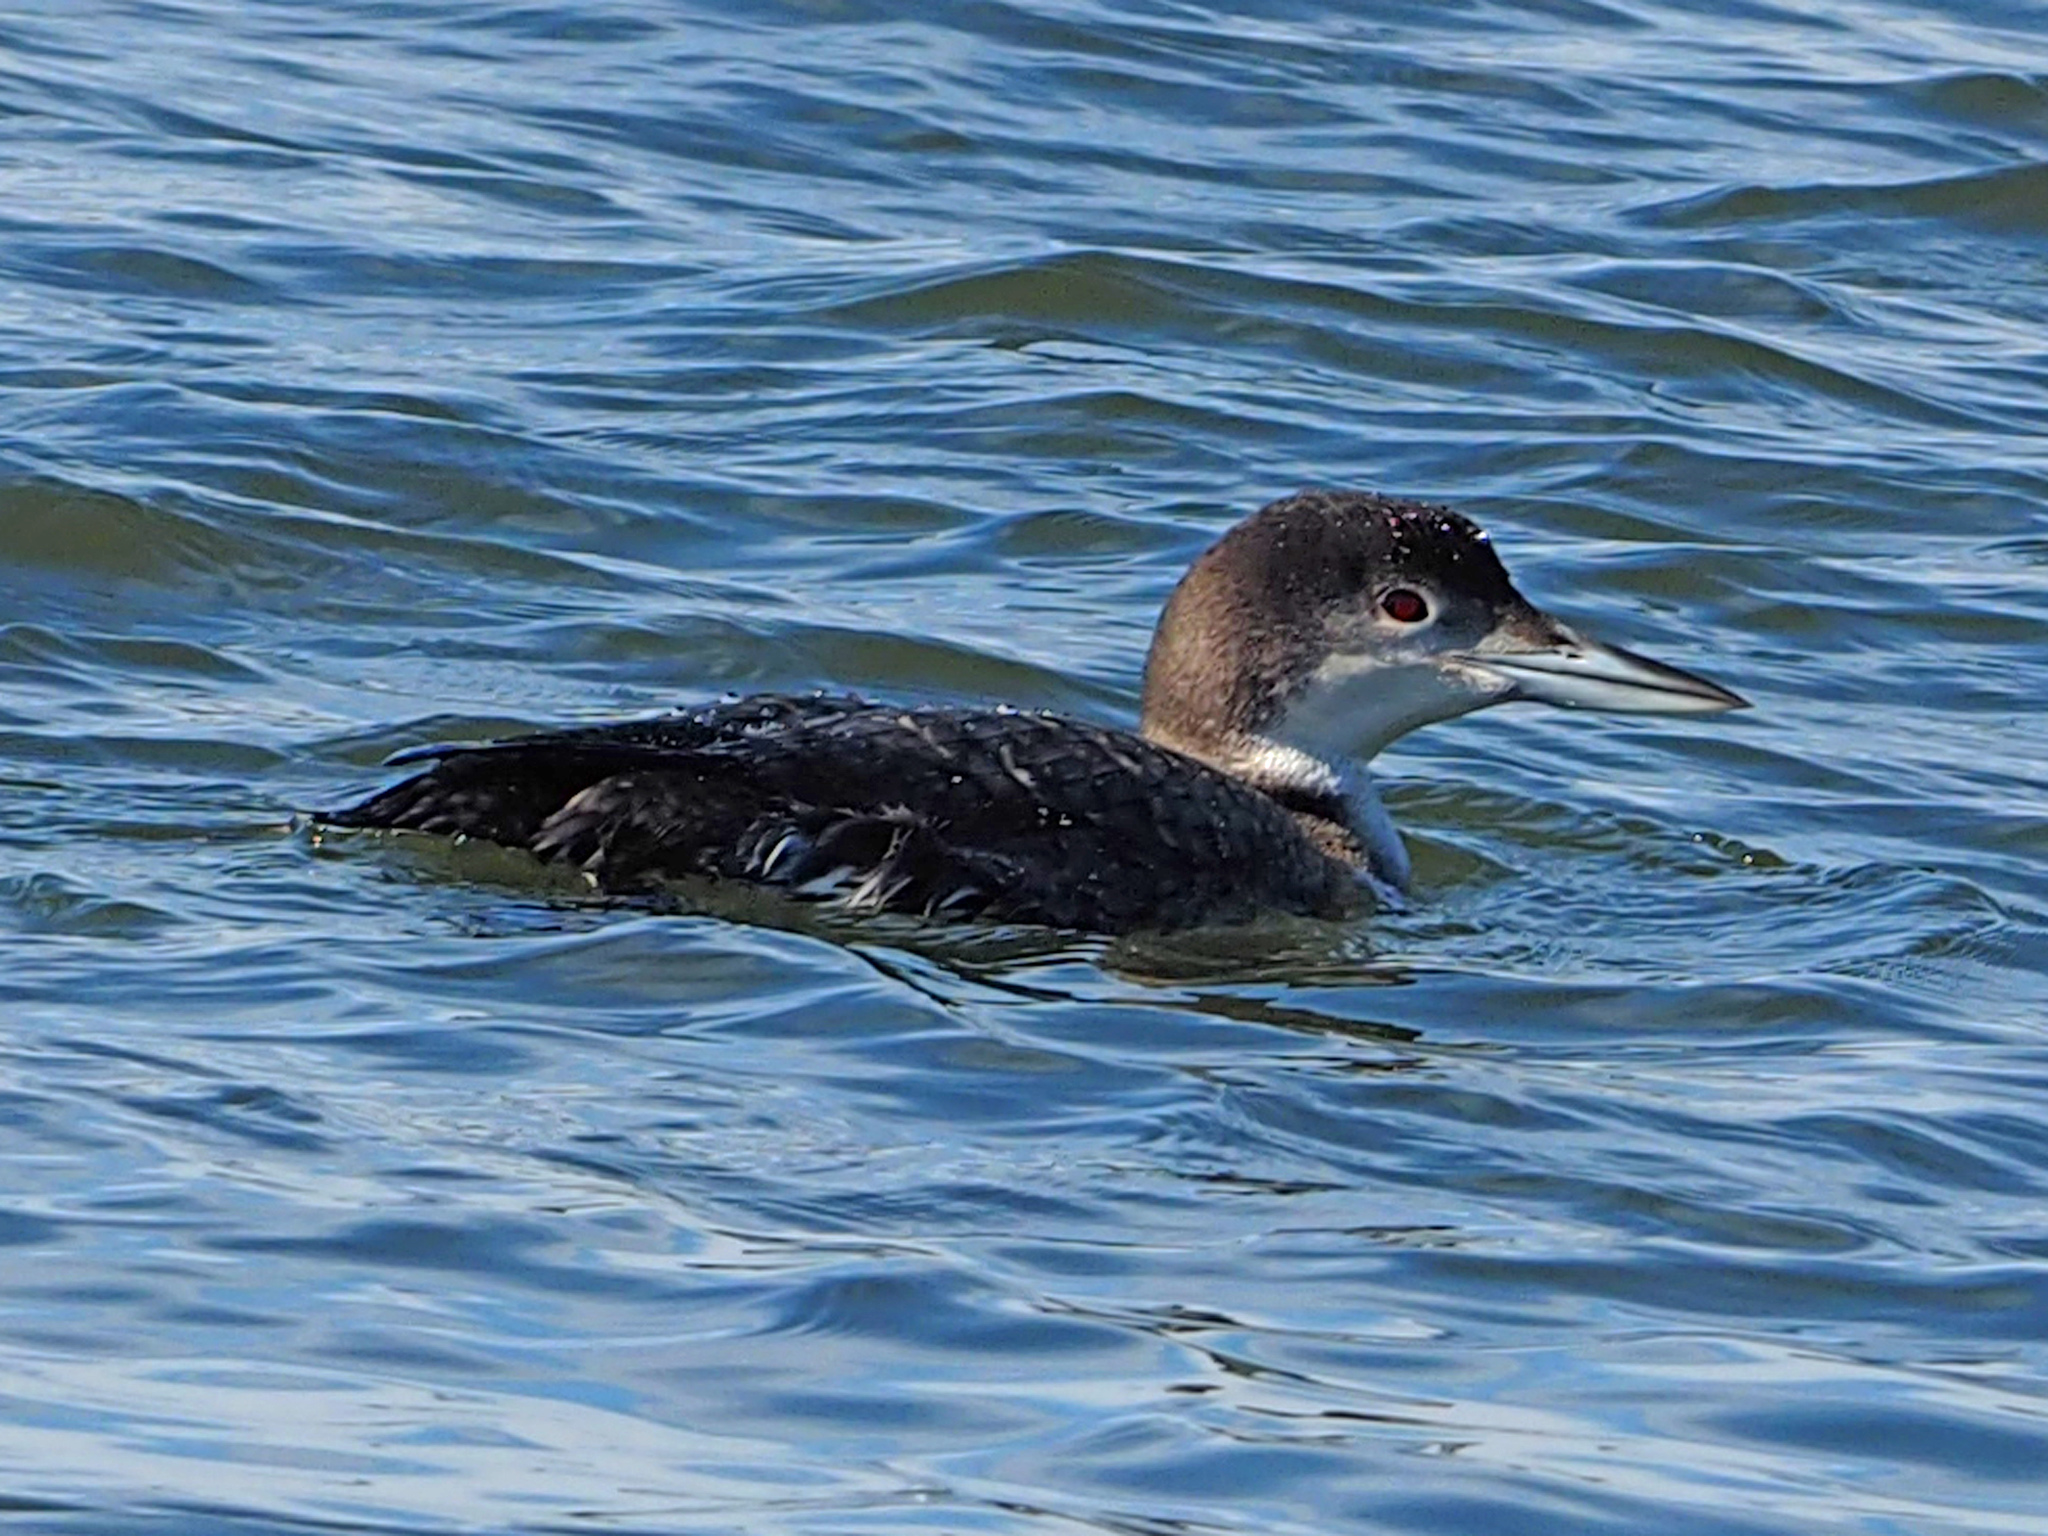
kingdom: Animalia
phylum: Chordata
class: Aves
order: Gaviiformes
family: Gaviidae
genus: Gavia
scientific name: Gavia immer
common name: Common loon
